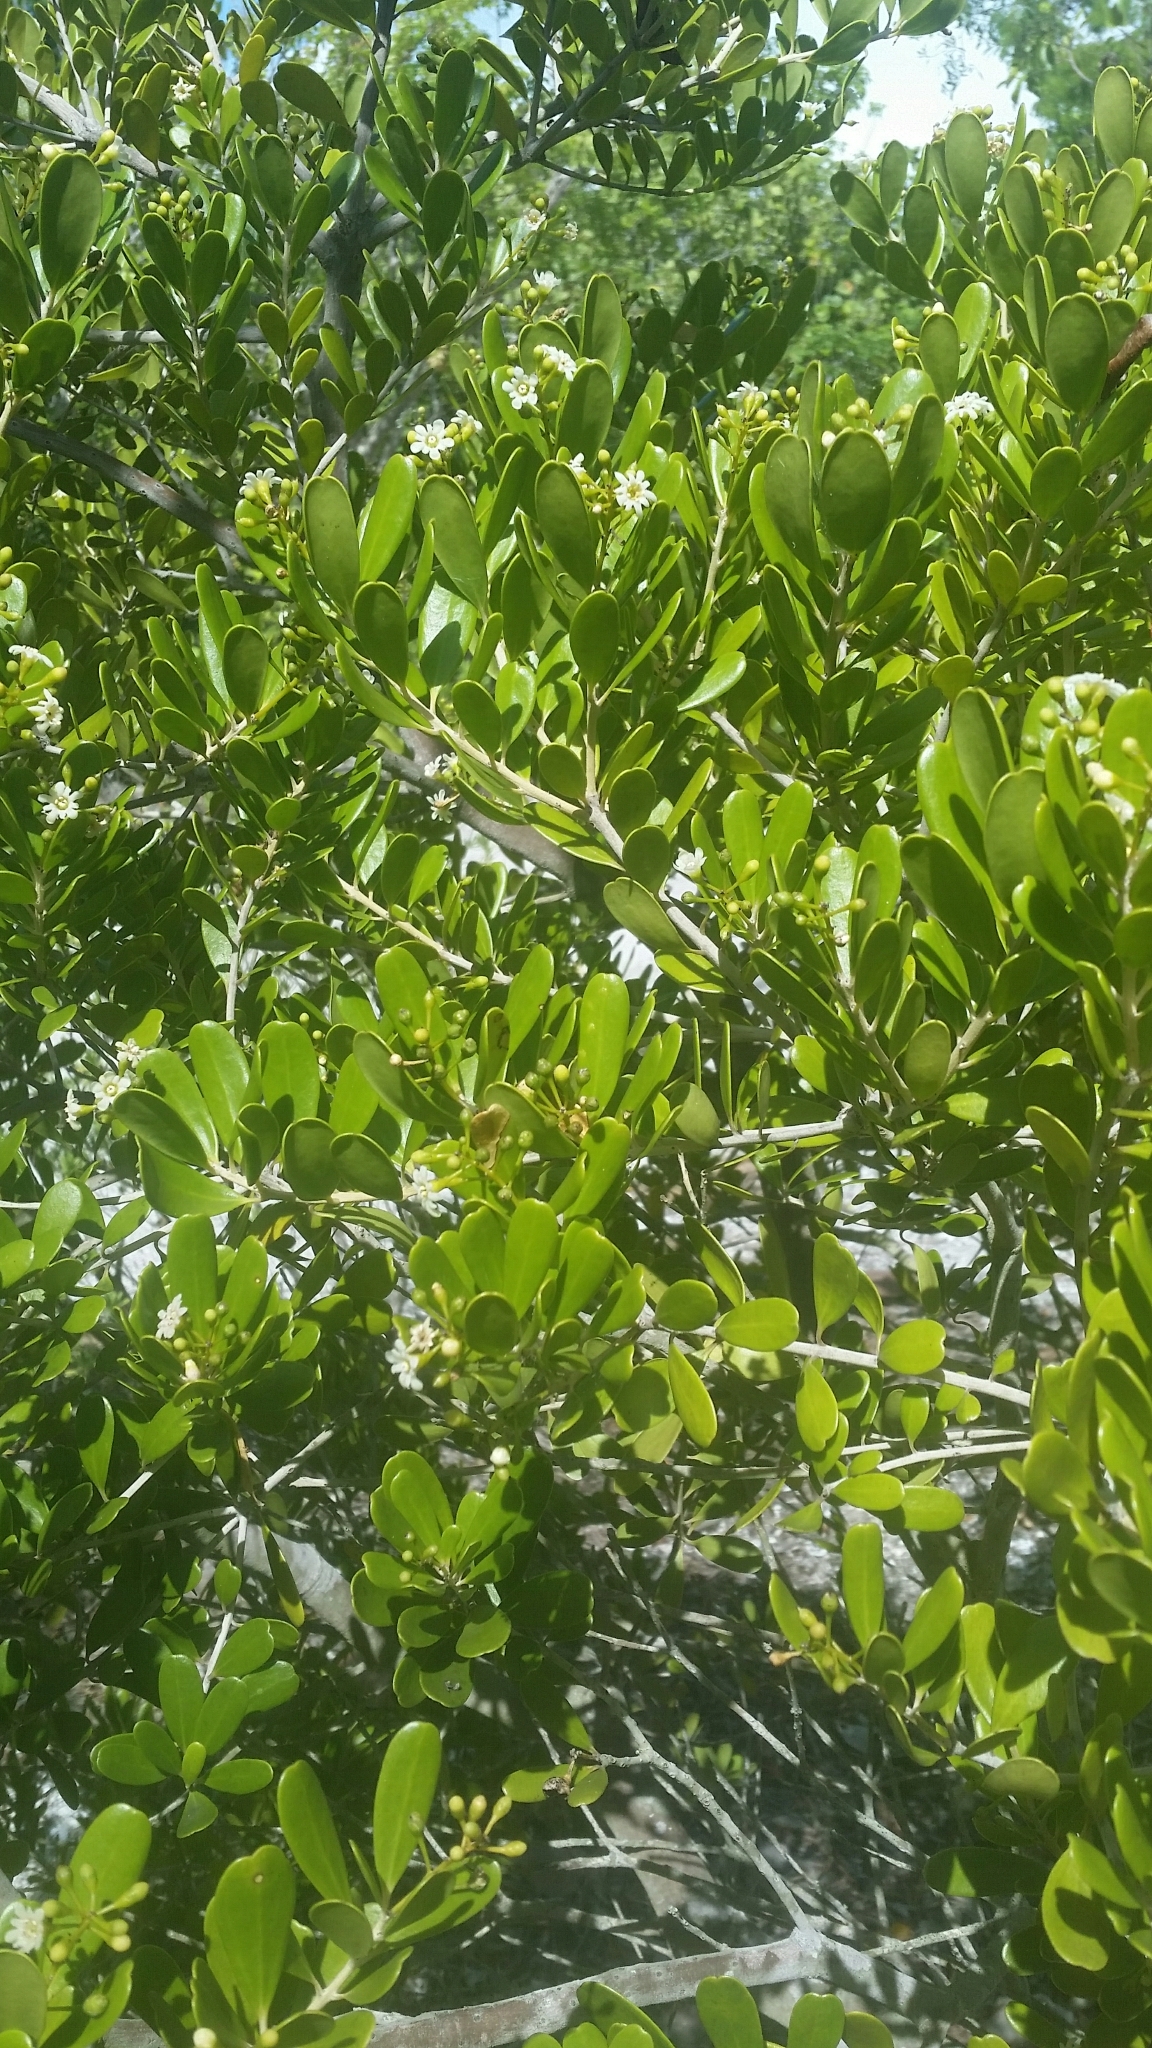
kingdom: Plantae
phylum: Tracheophyta
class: Magnoliopsida
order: Ericales
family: Primulaceae
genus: Jacquinia
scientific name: Jacquinia keyensis
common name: Joebush
